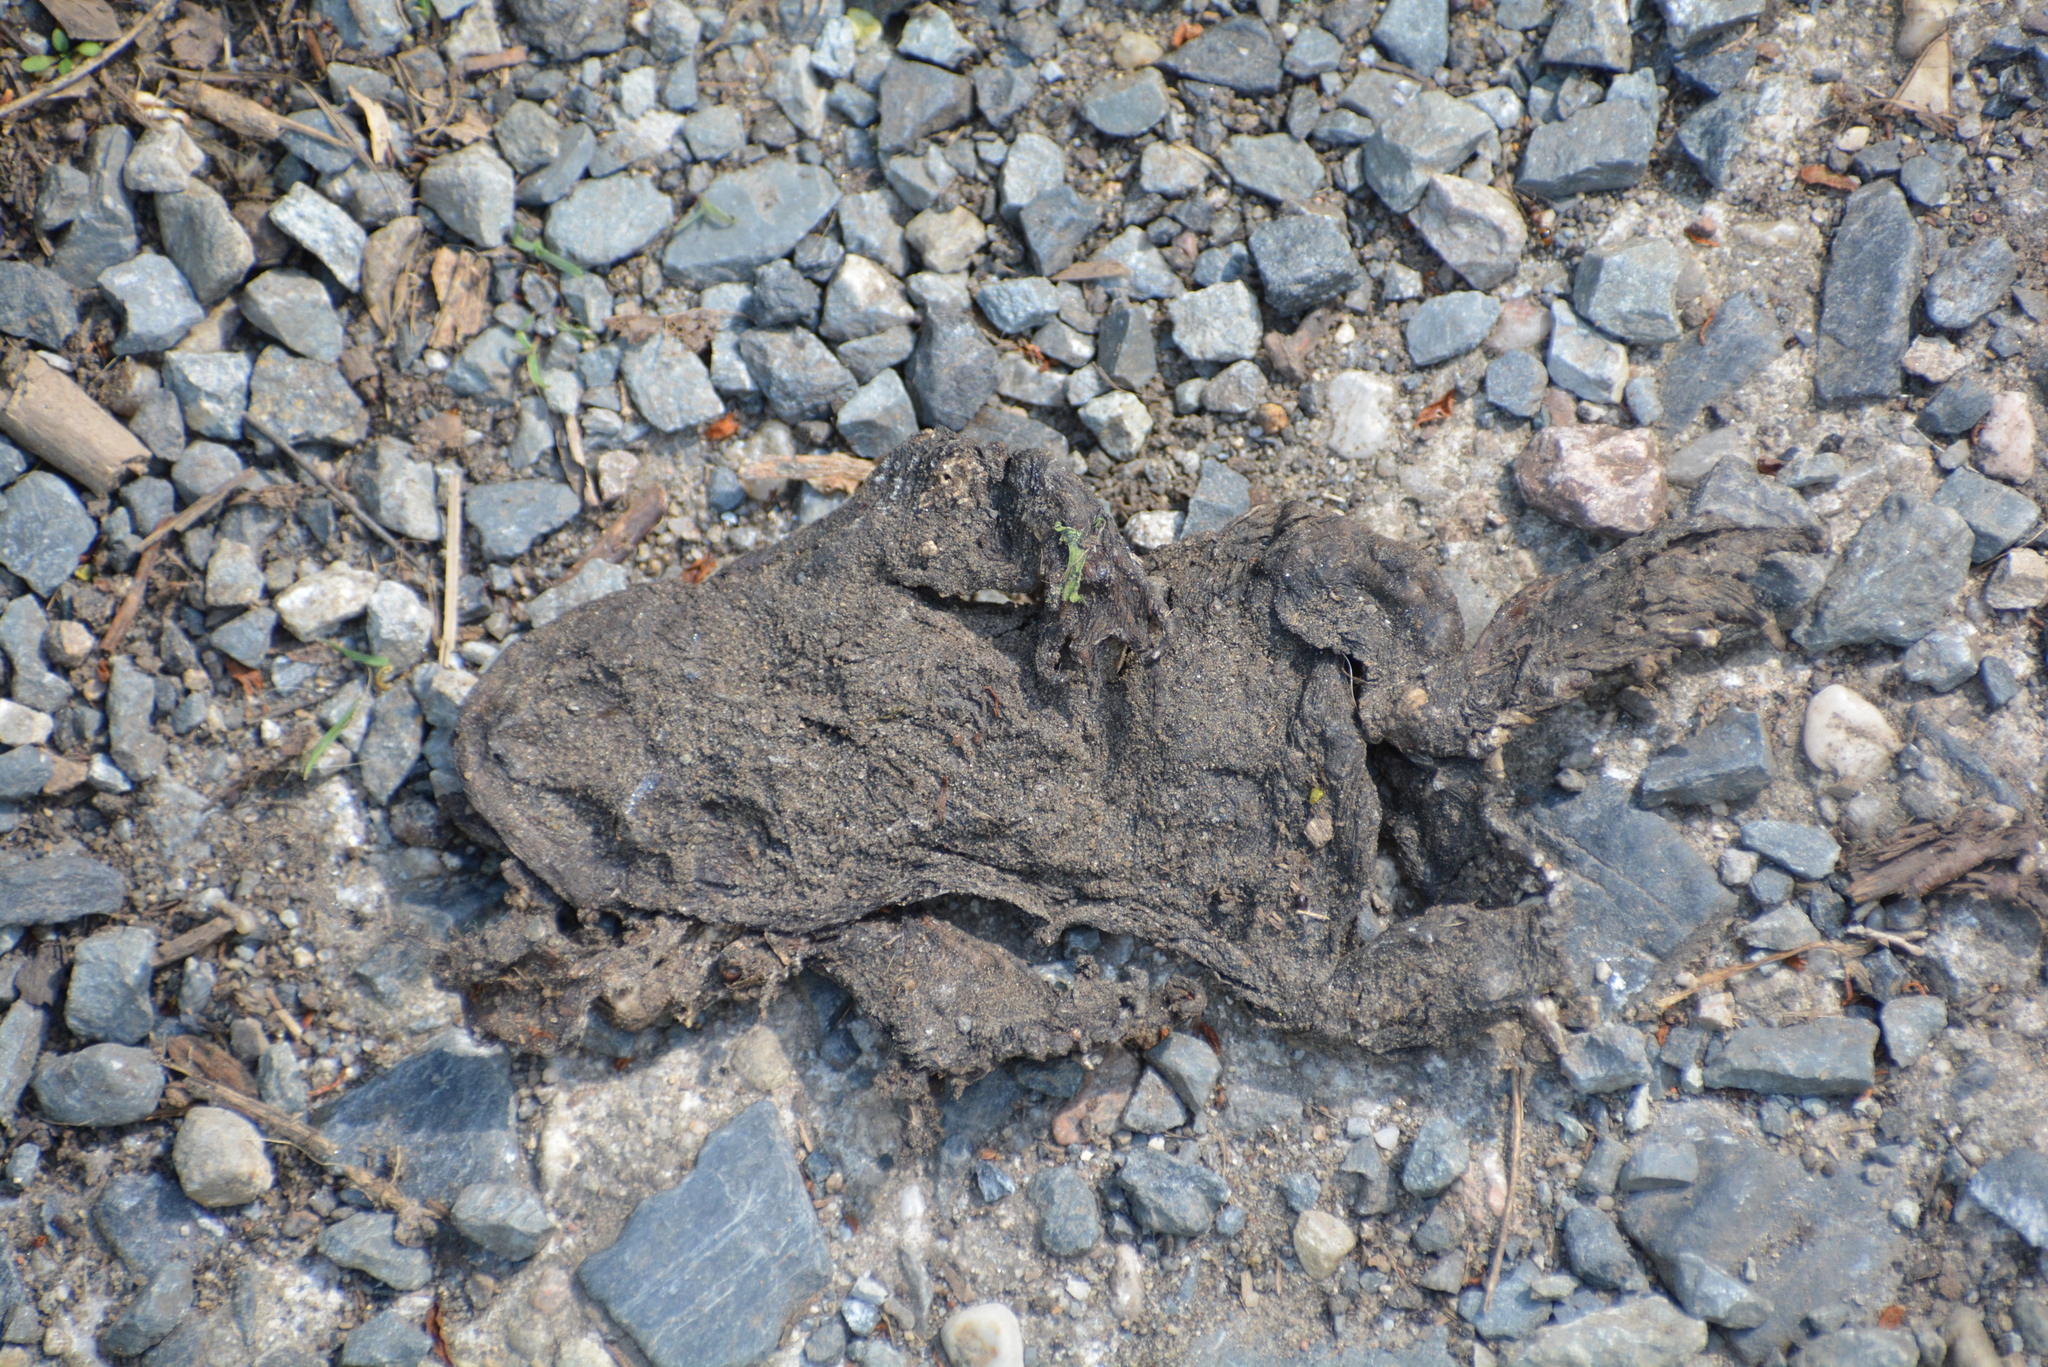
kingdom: Animalia
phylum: Chordata
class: Amphibia
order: Anura
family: Bufonidae
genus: Bufo
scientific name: Bufo bufo
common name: Common toad
